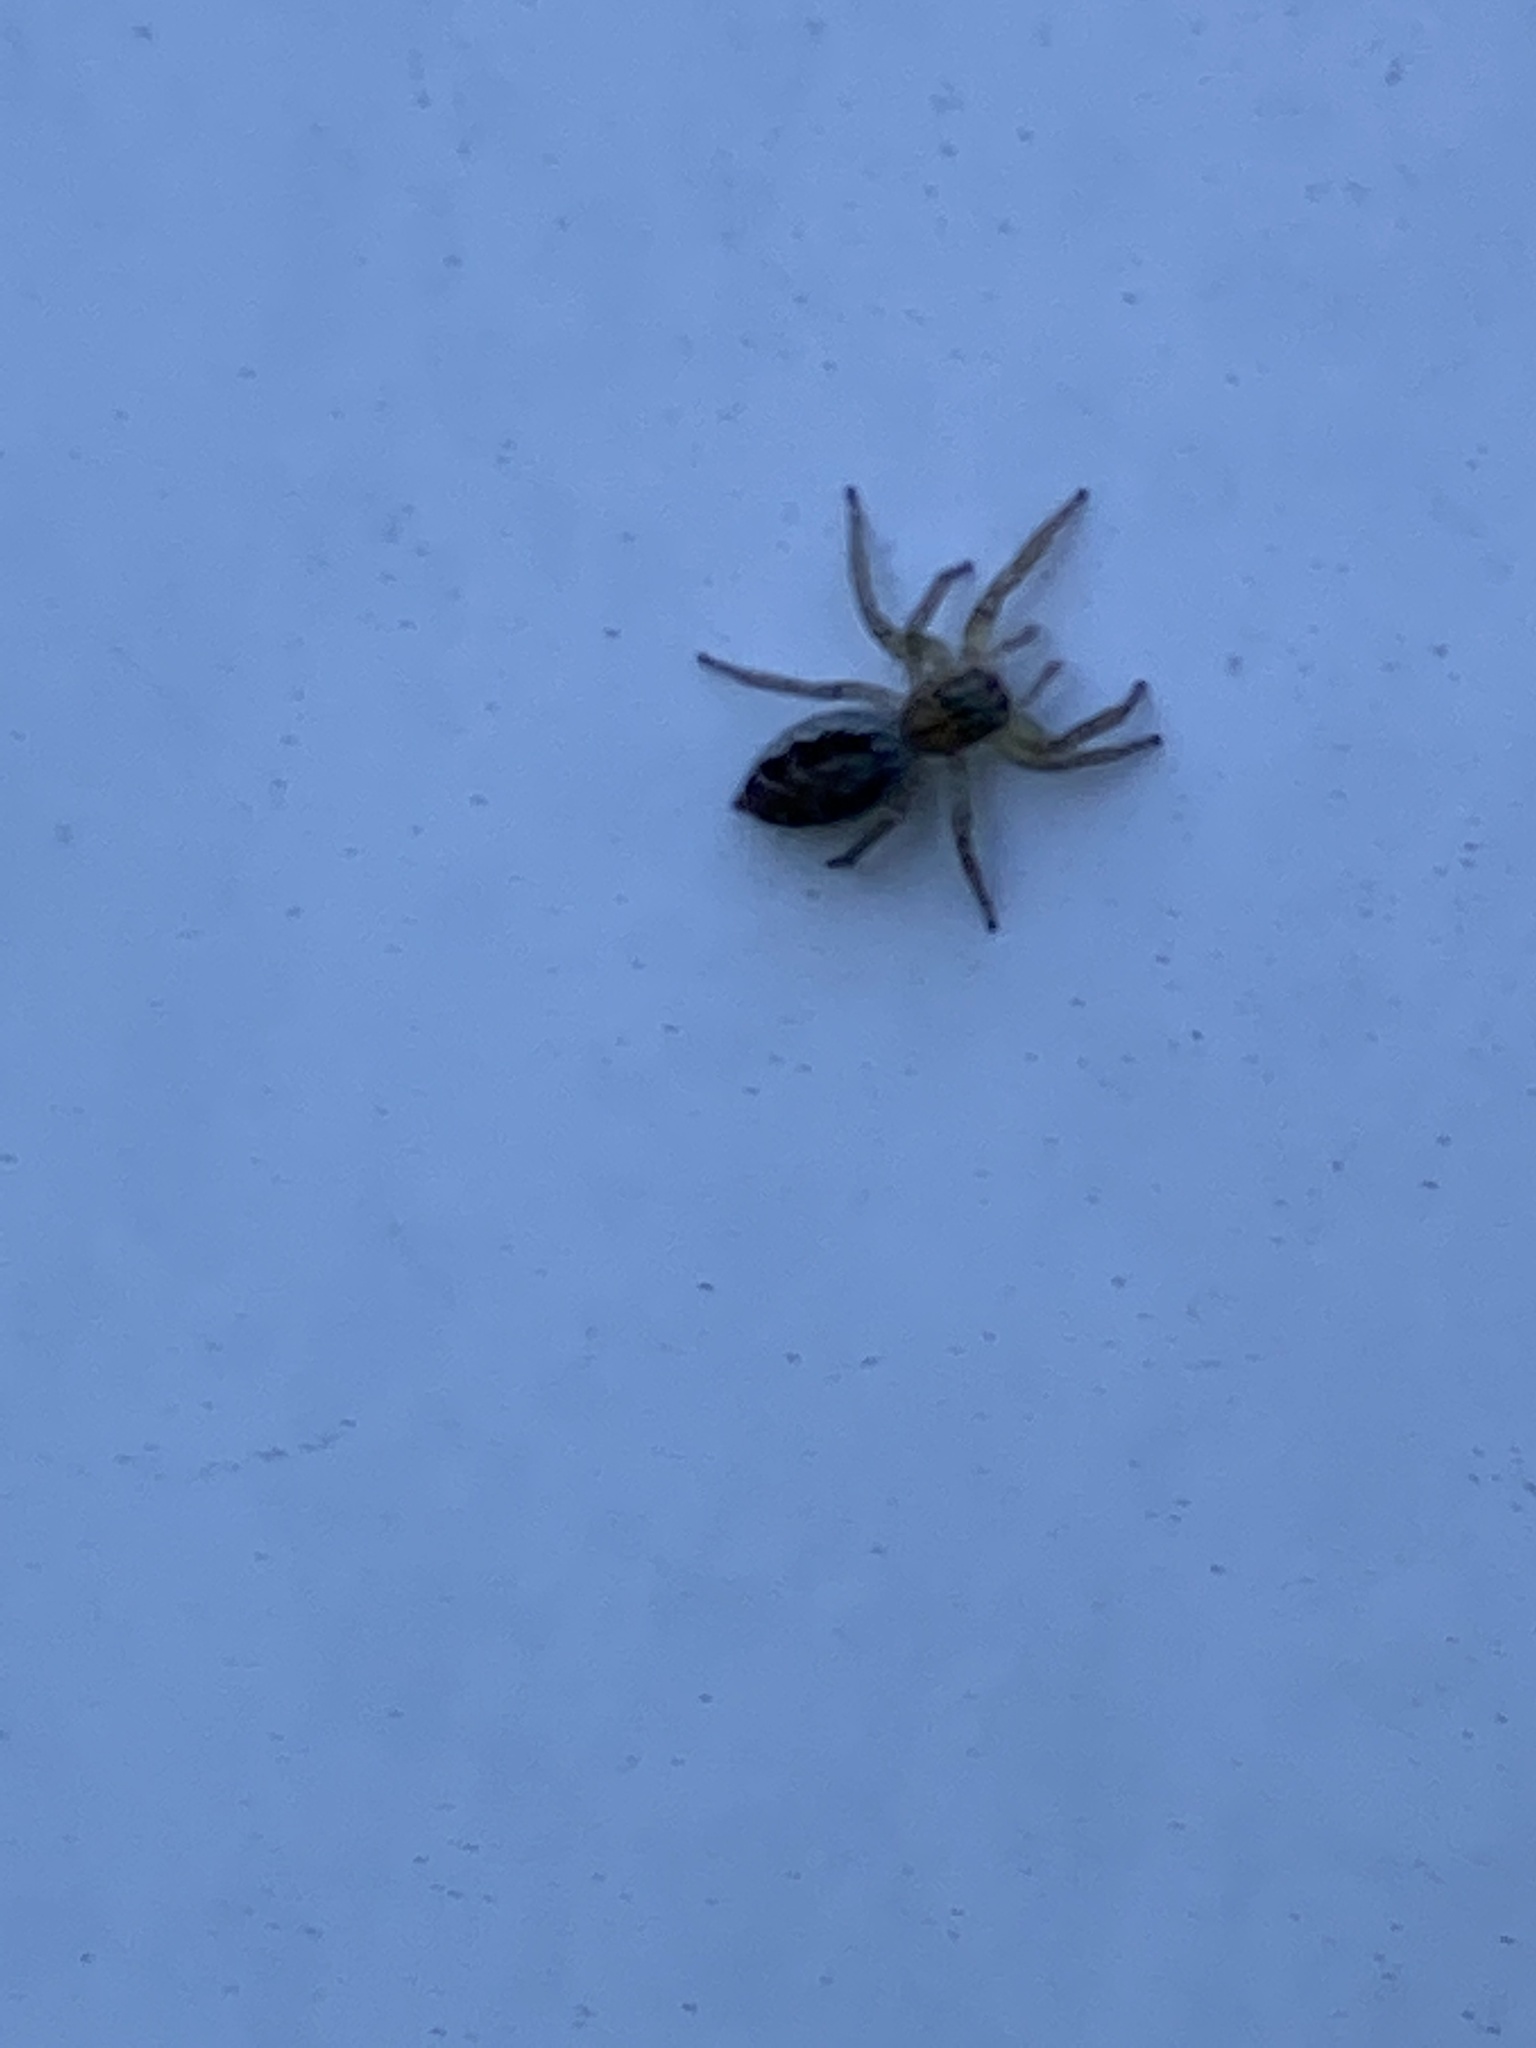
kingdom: Animalia
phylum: Arthropoda
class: Arachnida
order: Araneae
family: Salticidae
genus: Maevia
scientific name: Maevia inclemens
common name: Dimorphic jumper
